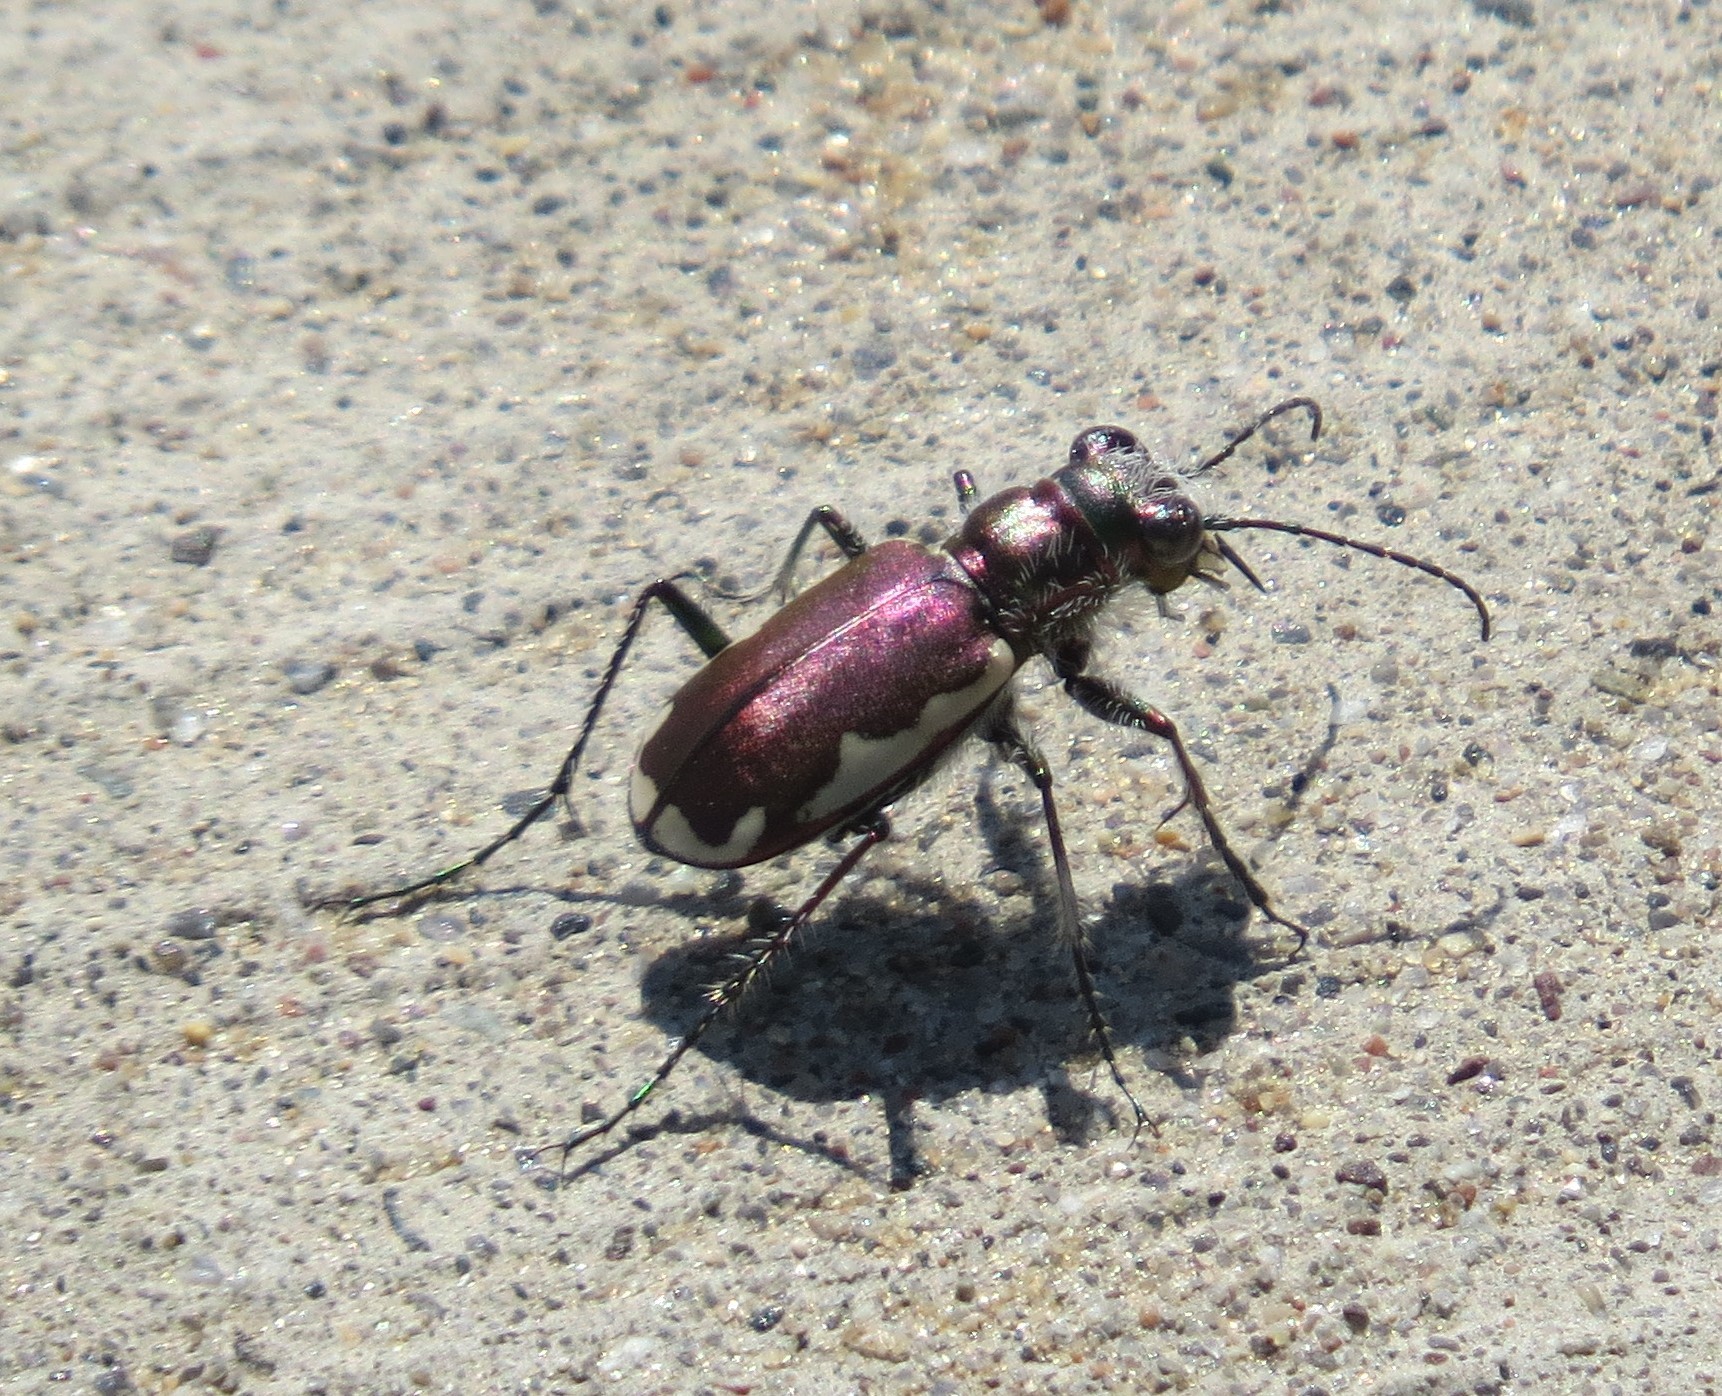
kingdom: Animalia
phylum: Arthropoda
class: Insecta
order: Coleoptera
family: Carabidae
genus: Cicindela
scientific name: Cicindela scutellaris
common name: Festive tiger beetle
